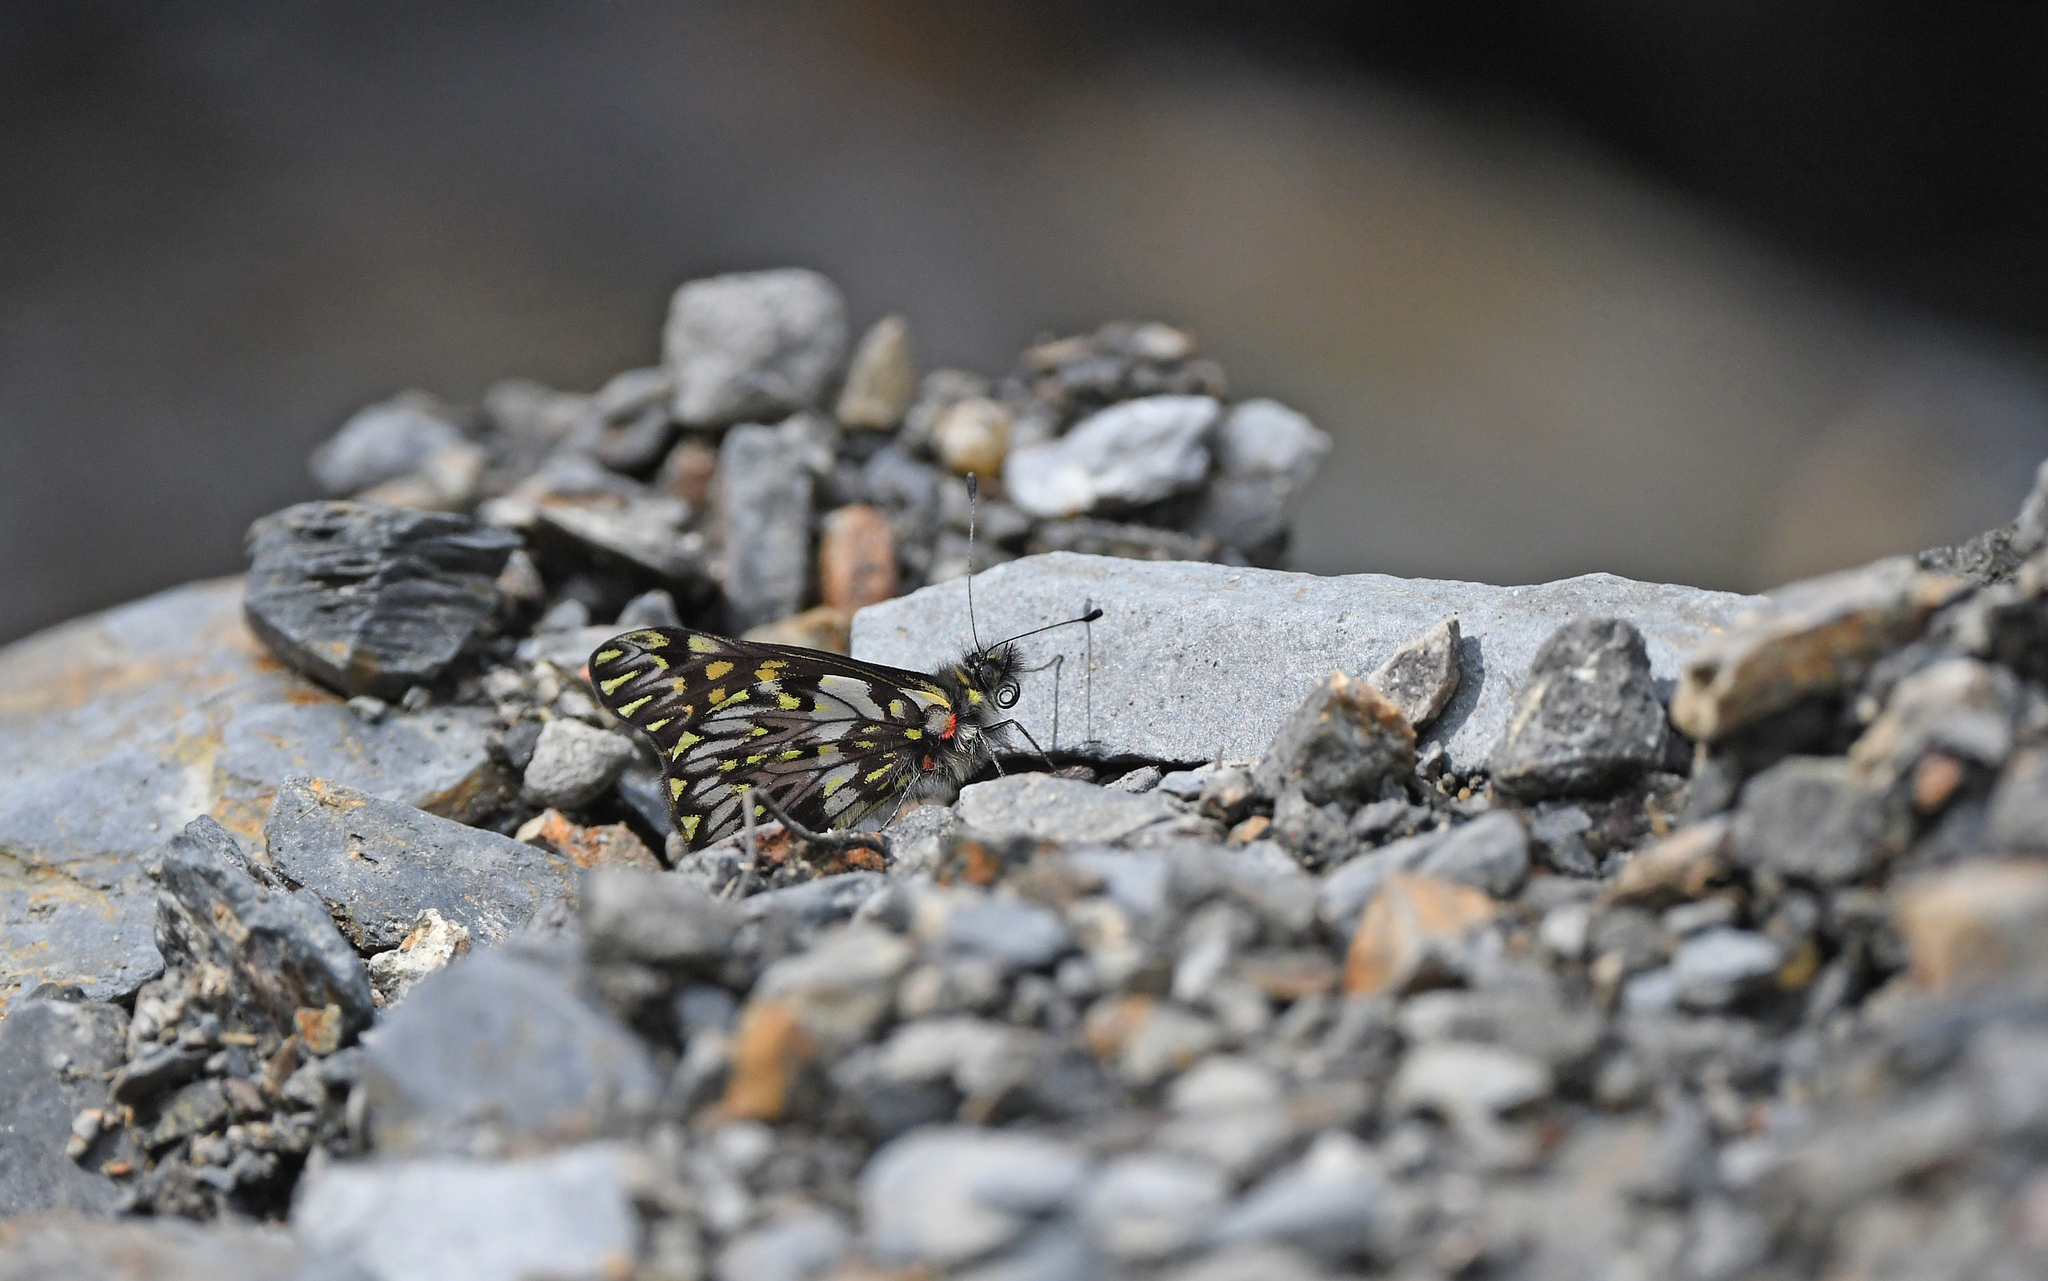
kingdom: Animalia
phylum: Arthropoda
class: Insecta
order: Lepidoptera
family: Pieridae
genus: Catasticta
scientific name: Catasticta pinava
